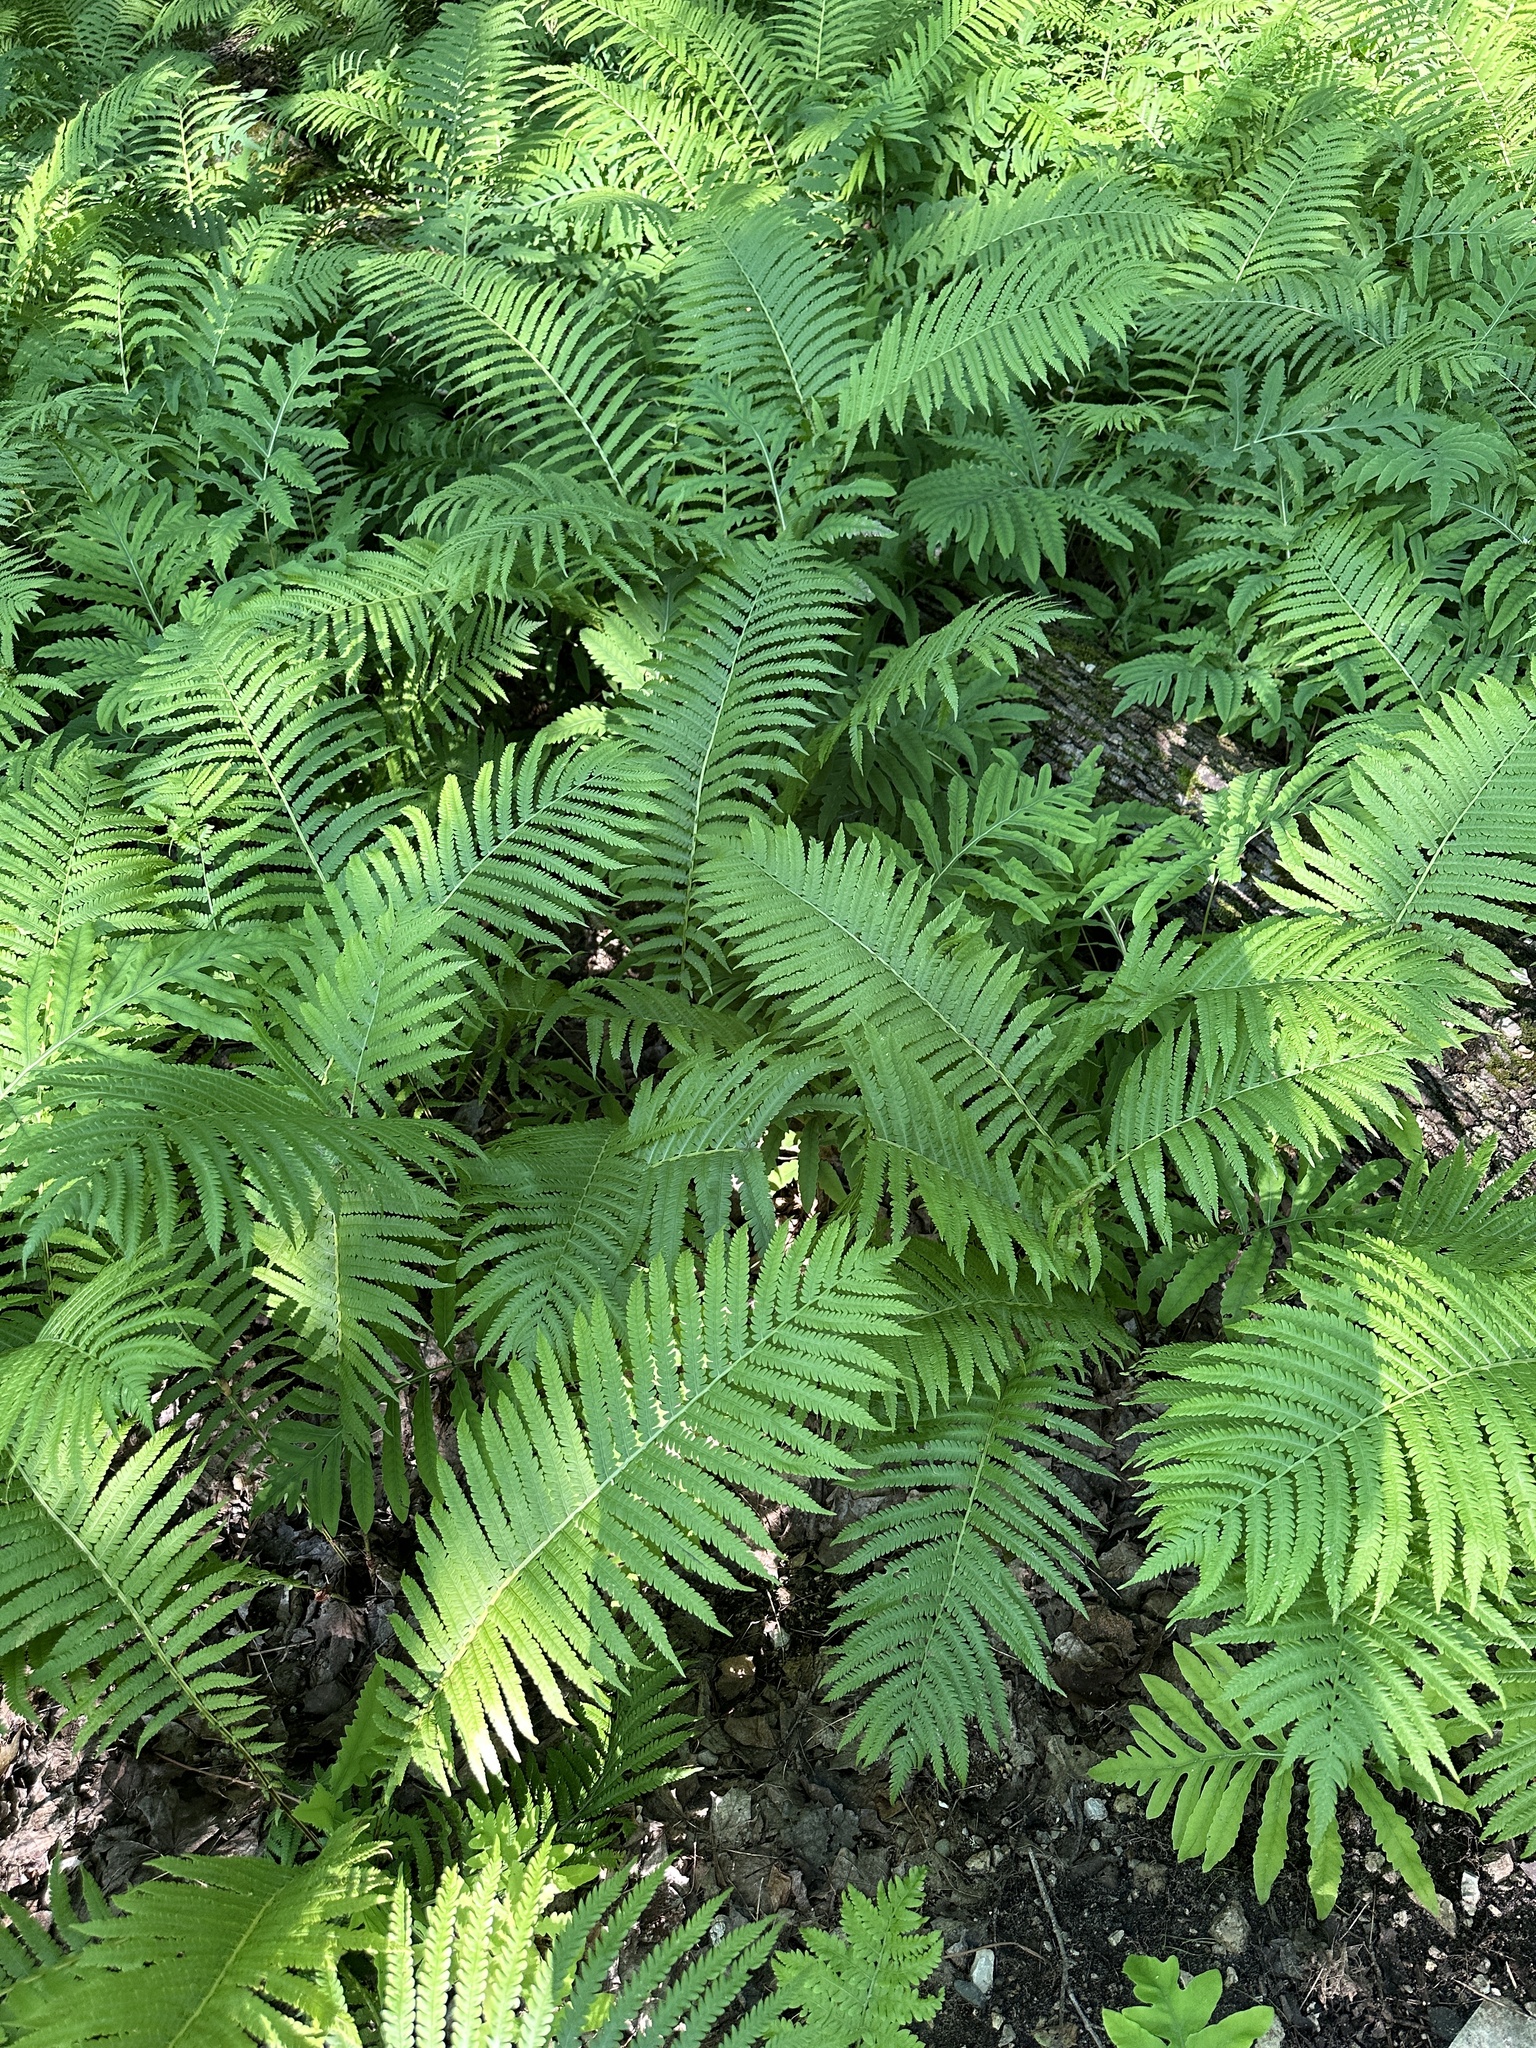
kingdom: Plantae
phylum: Tracheophyta
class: Polypodiopsida
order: Polypodiales
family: Onocleaceae
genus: Matteuccia
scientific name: Matteuccia struthiopteris
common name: Ostrich fern
